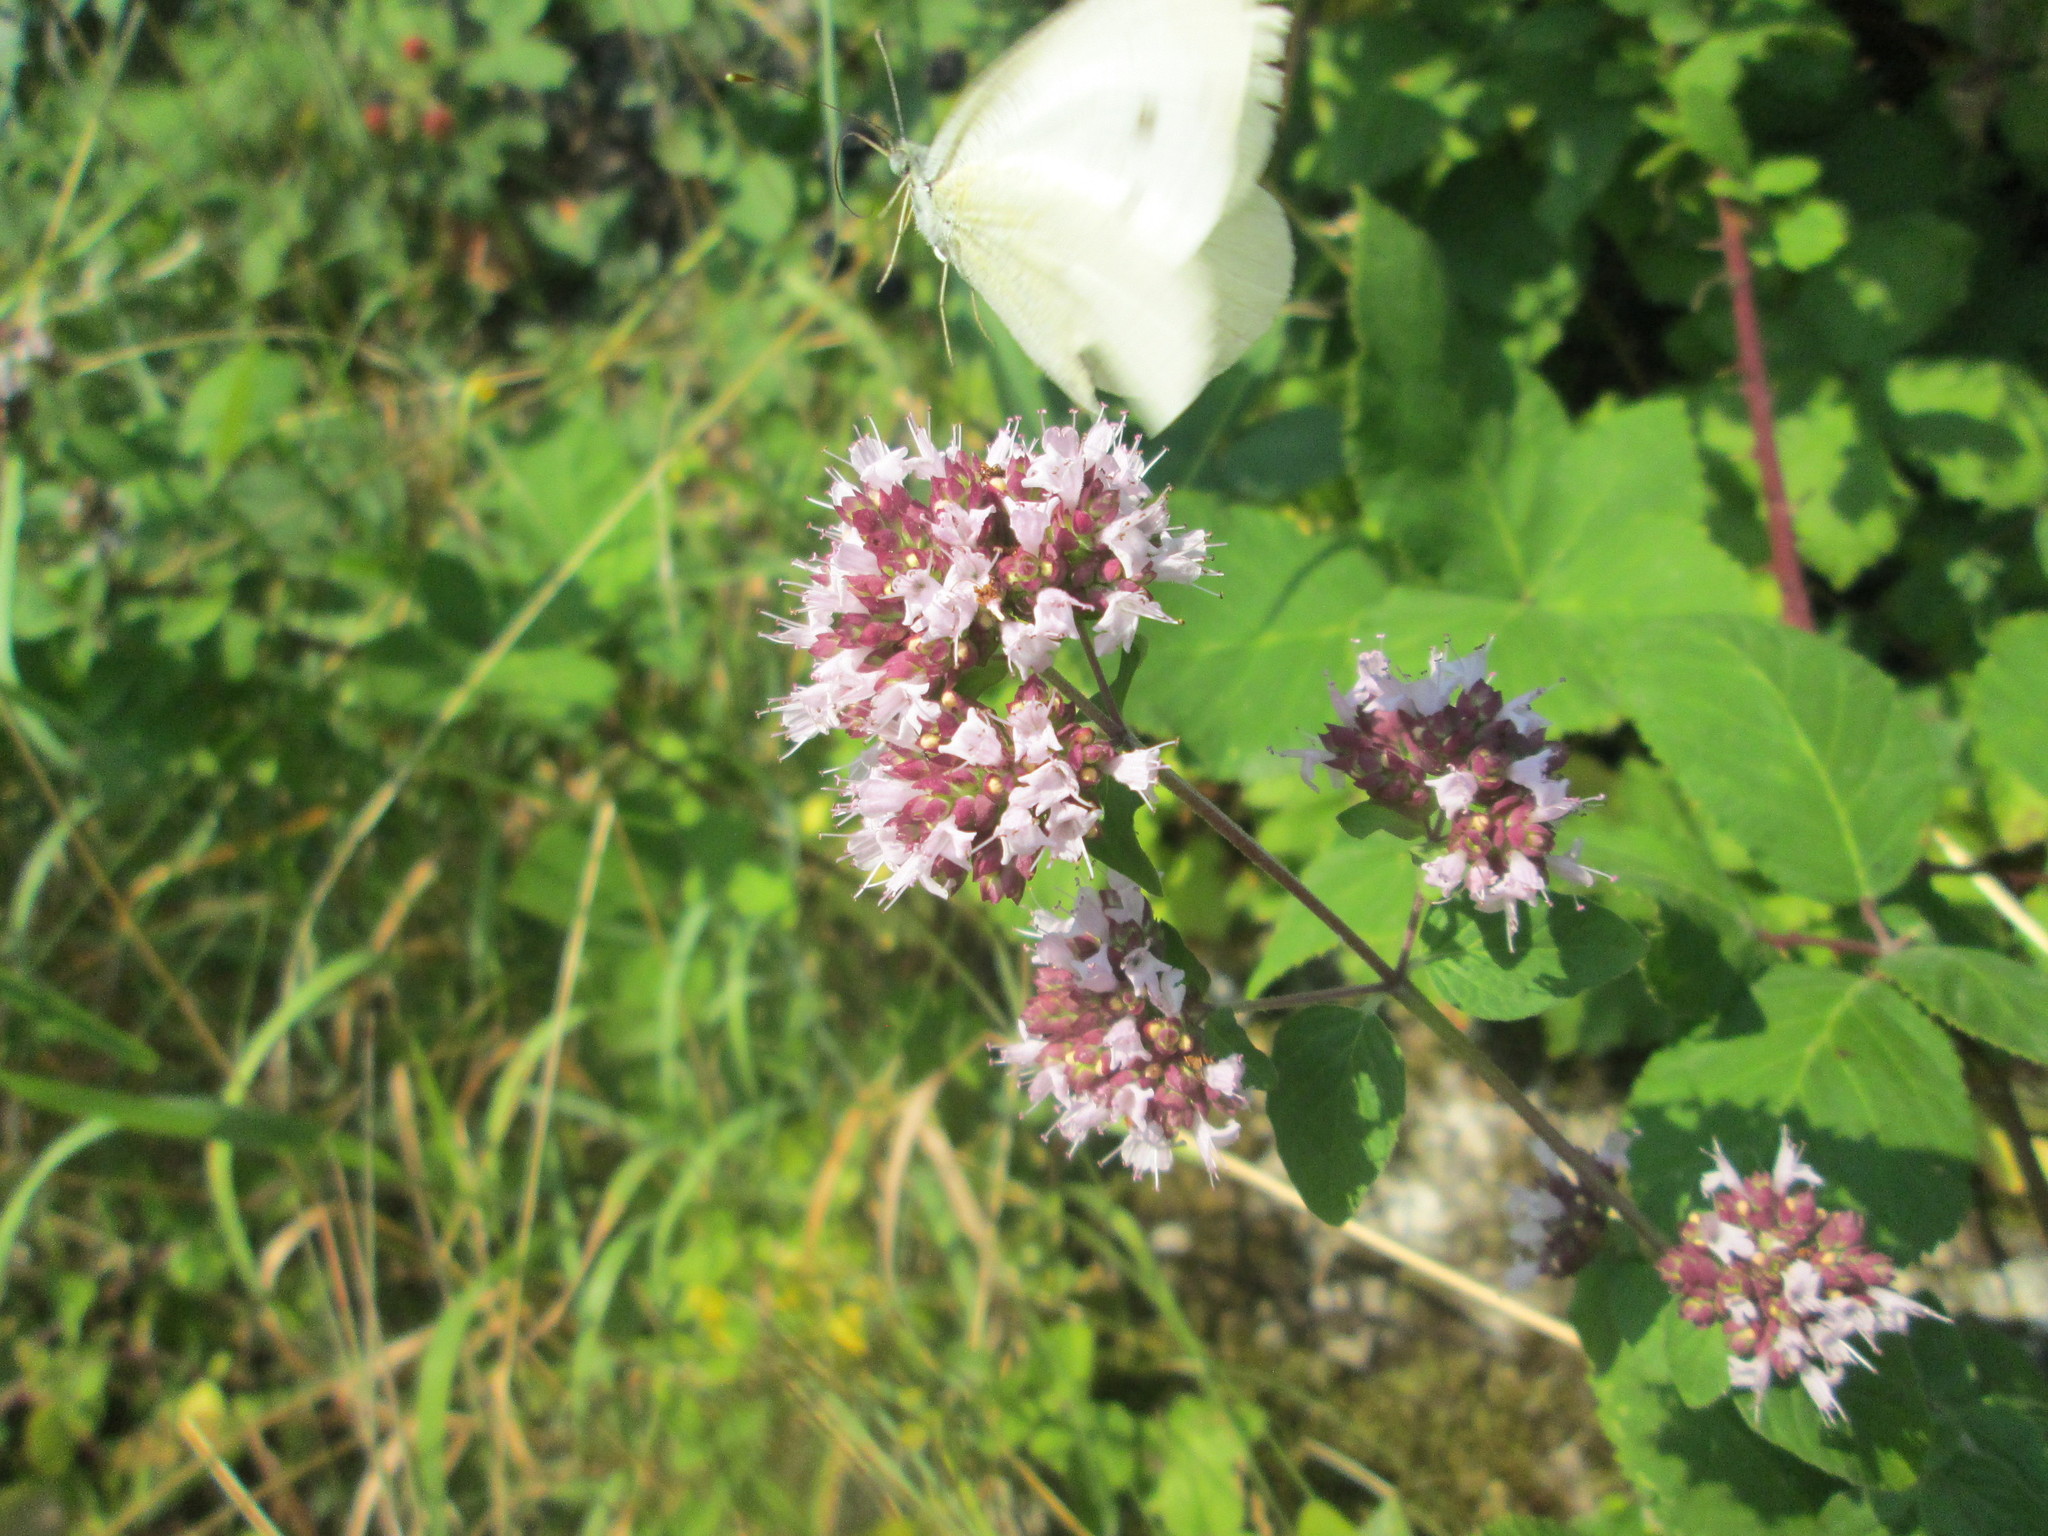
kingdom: Animalia
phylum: Arthropoda
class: Insecta
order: Lepidoptera
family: Pieridae
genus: Pieris
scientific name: Pieris rapae
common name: Small white
